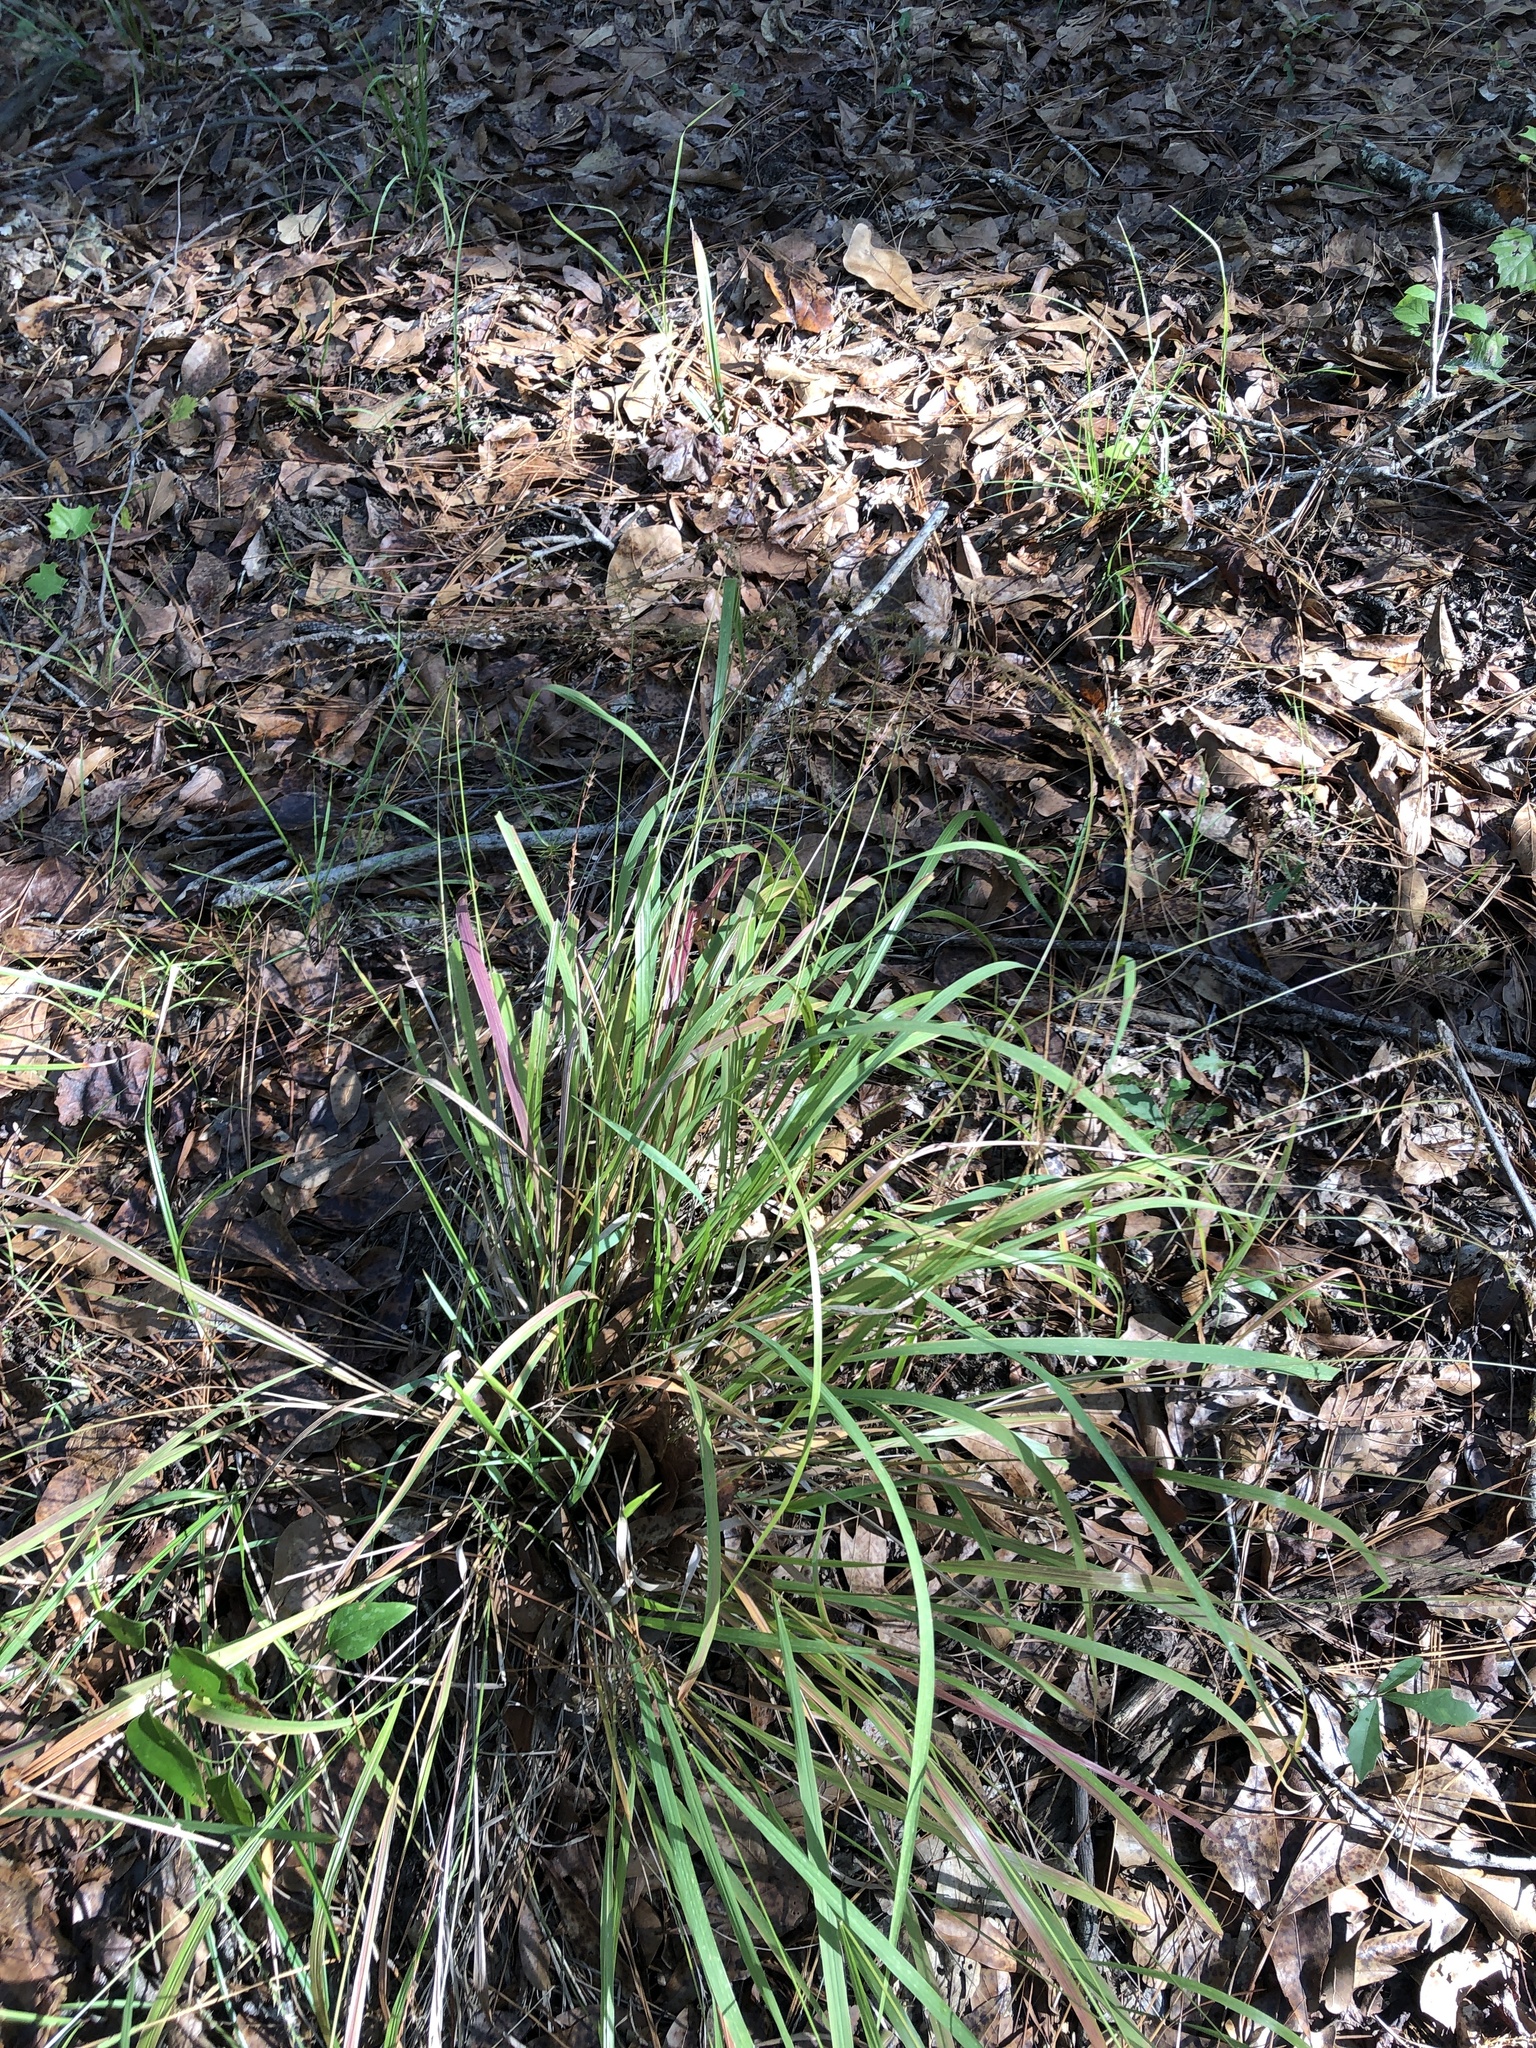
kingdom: Plantae
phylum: Tracheophyta
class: Liliopsida
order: Poales
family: Poaceae
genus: Chasmanthium
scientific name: Chasmanthium laxum
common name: Slender chasmanthium
